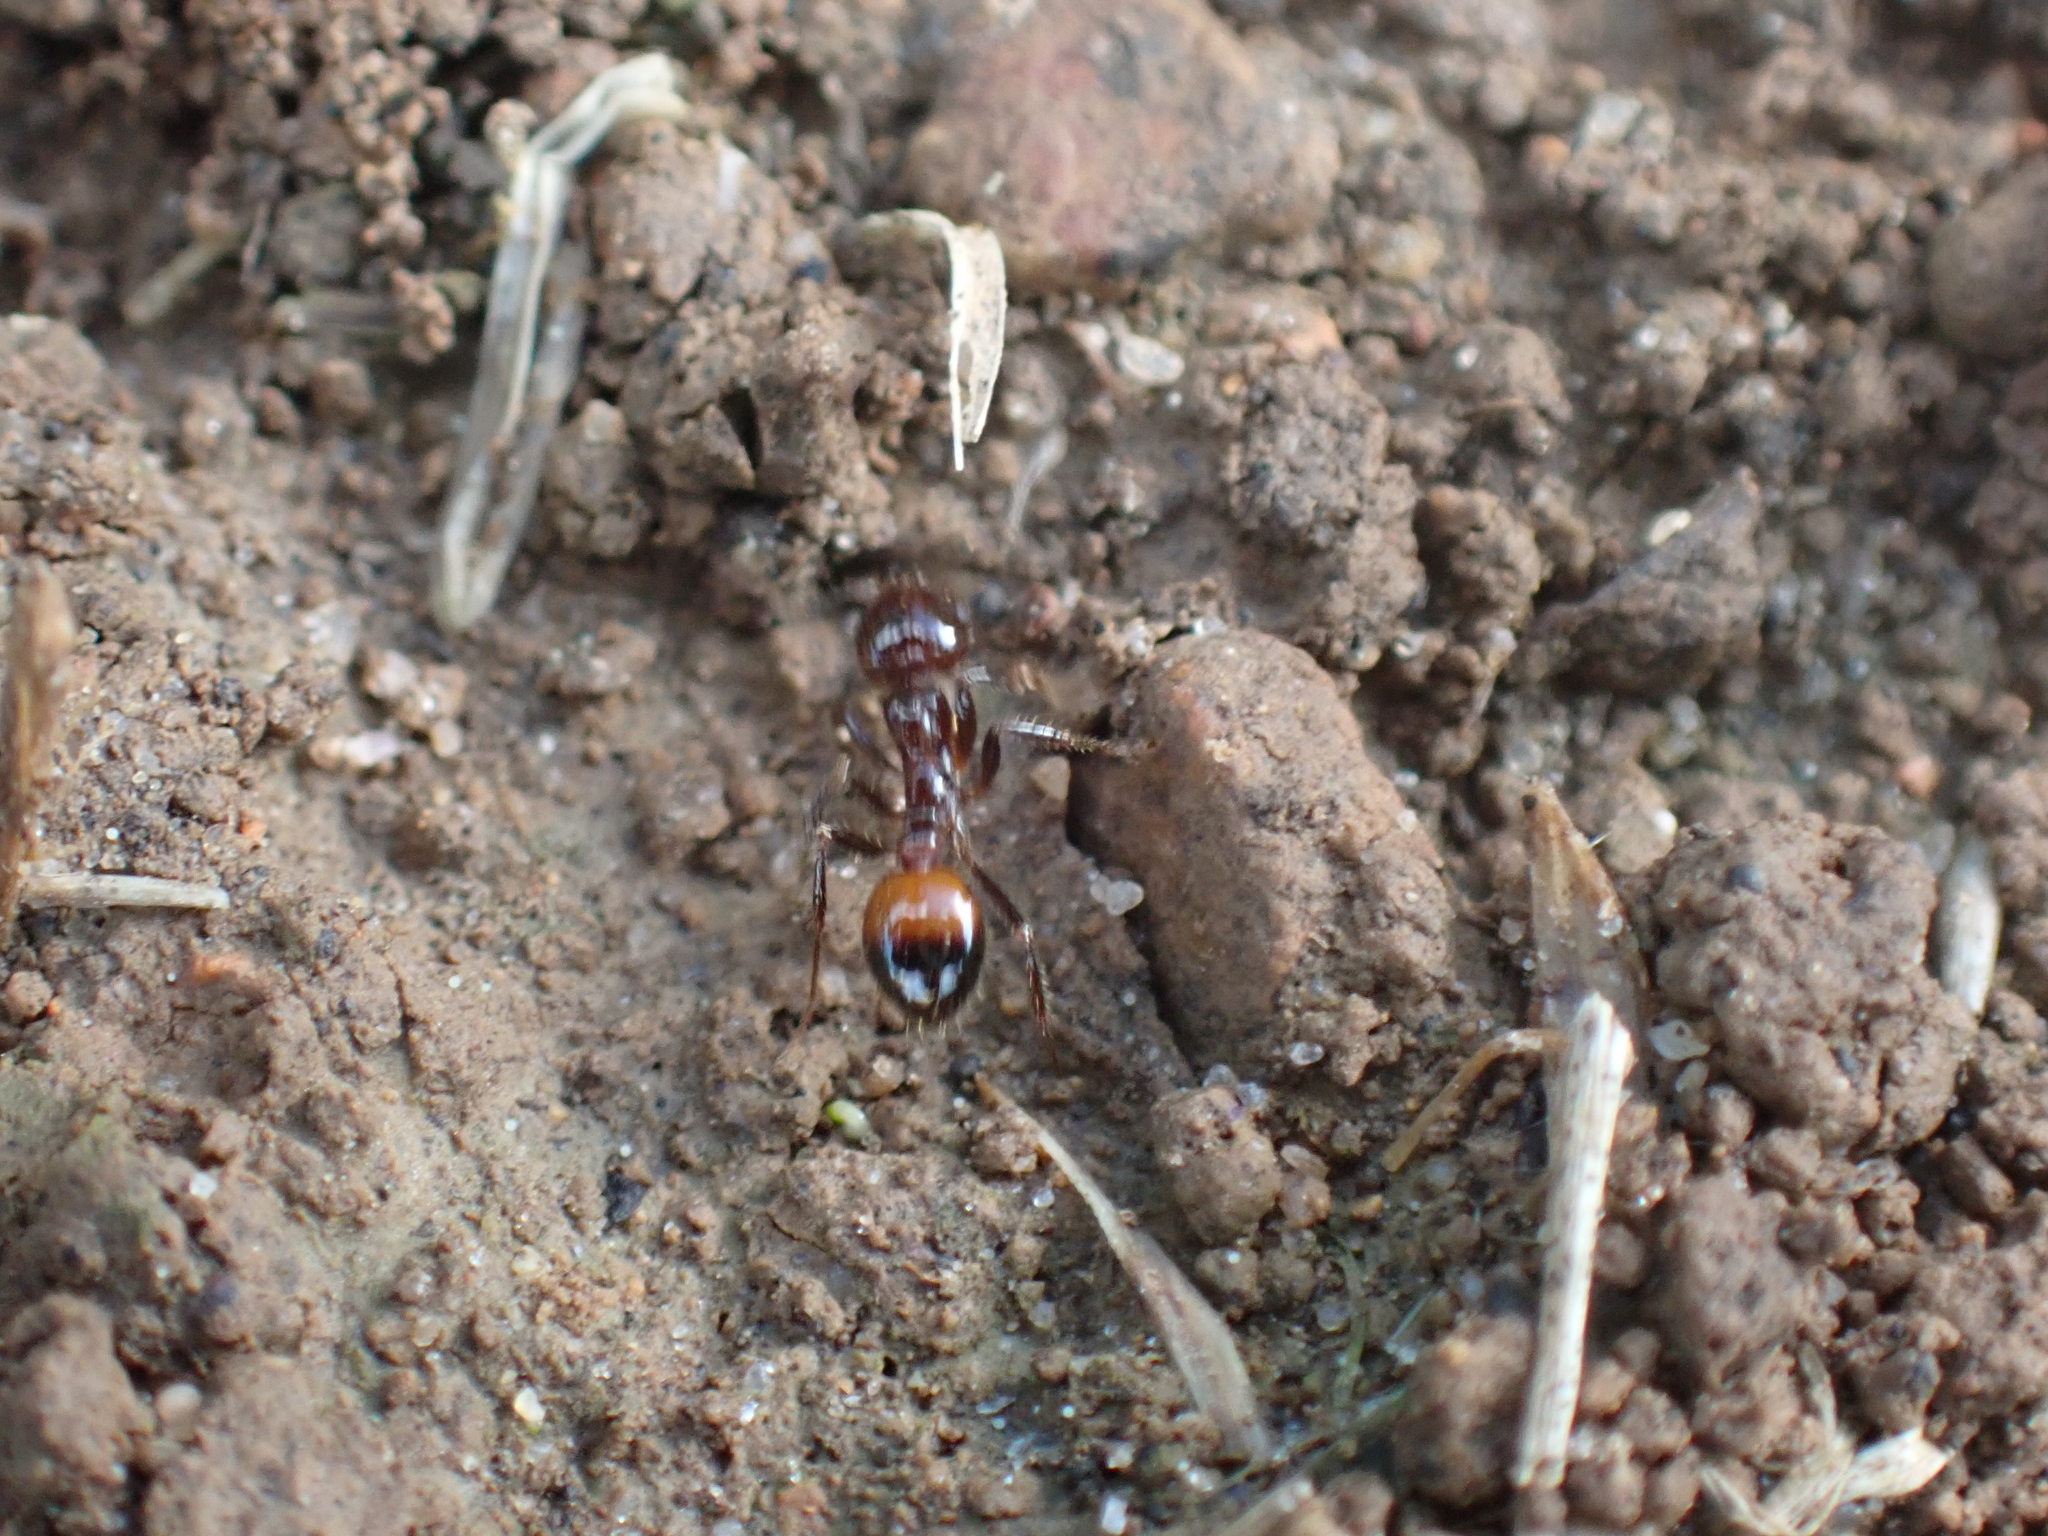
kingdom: Animalia
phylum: Arthropoda
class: Insecta
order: Hymenoptera
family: Formicidae
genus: Solenopsis
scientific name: Solenopsis
